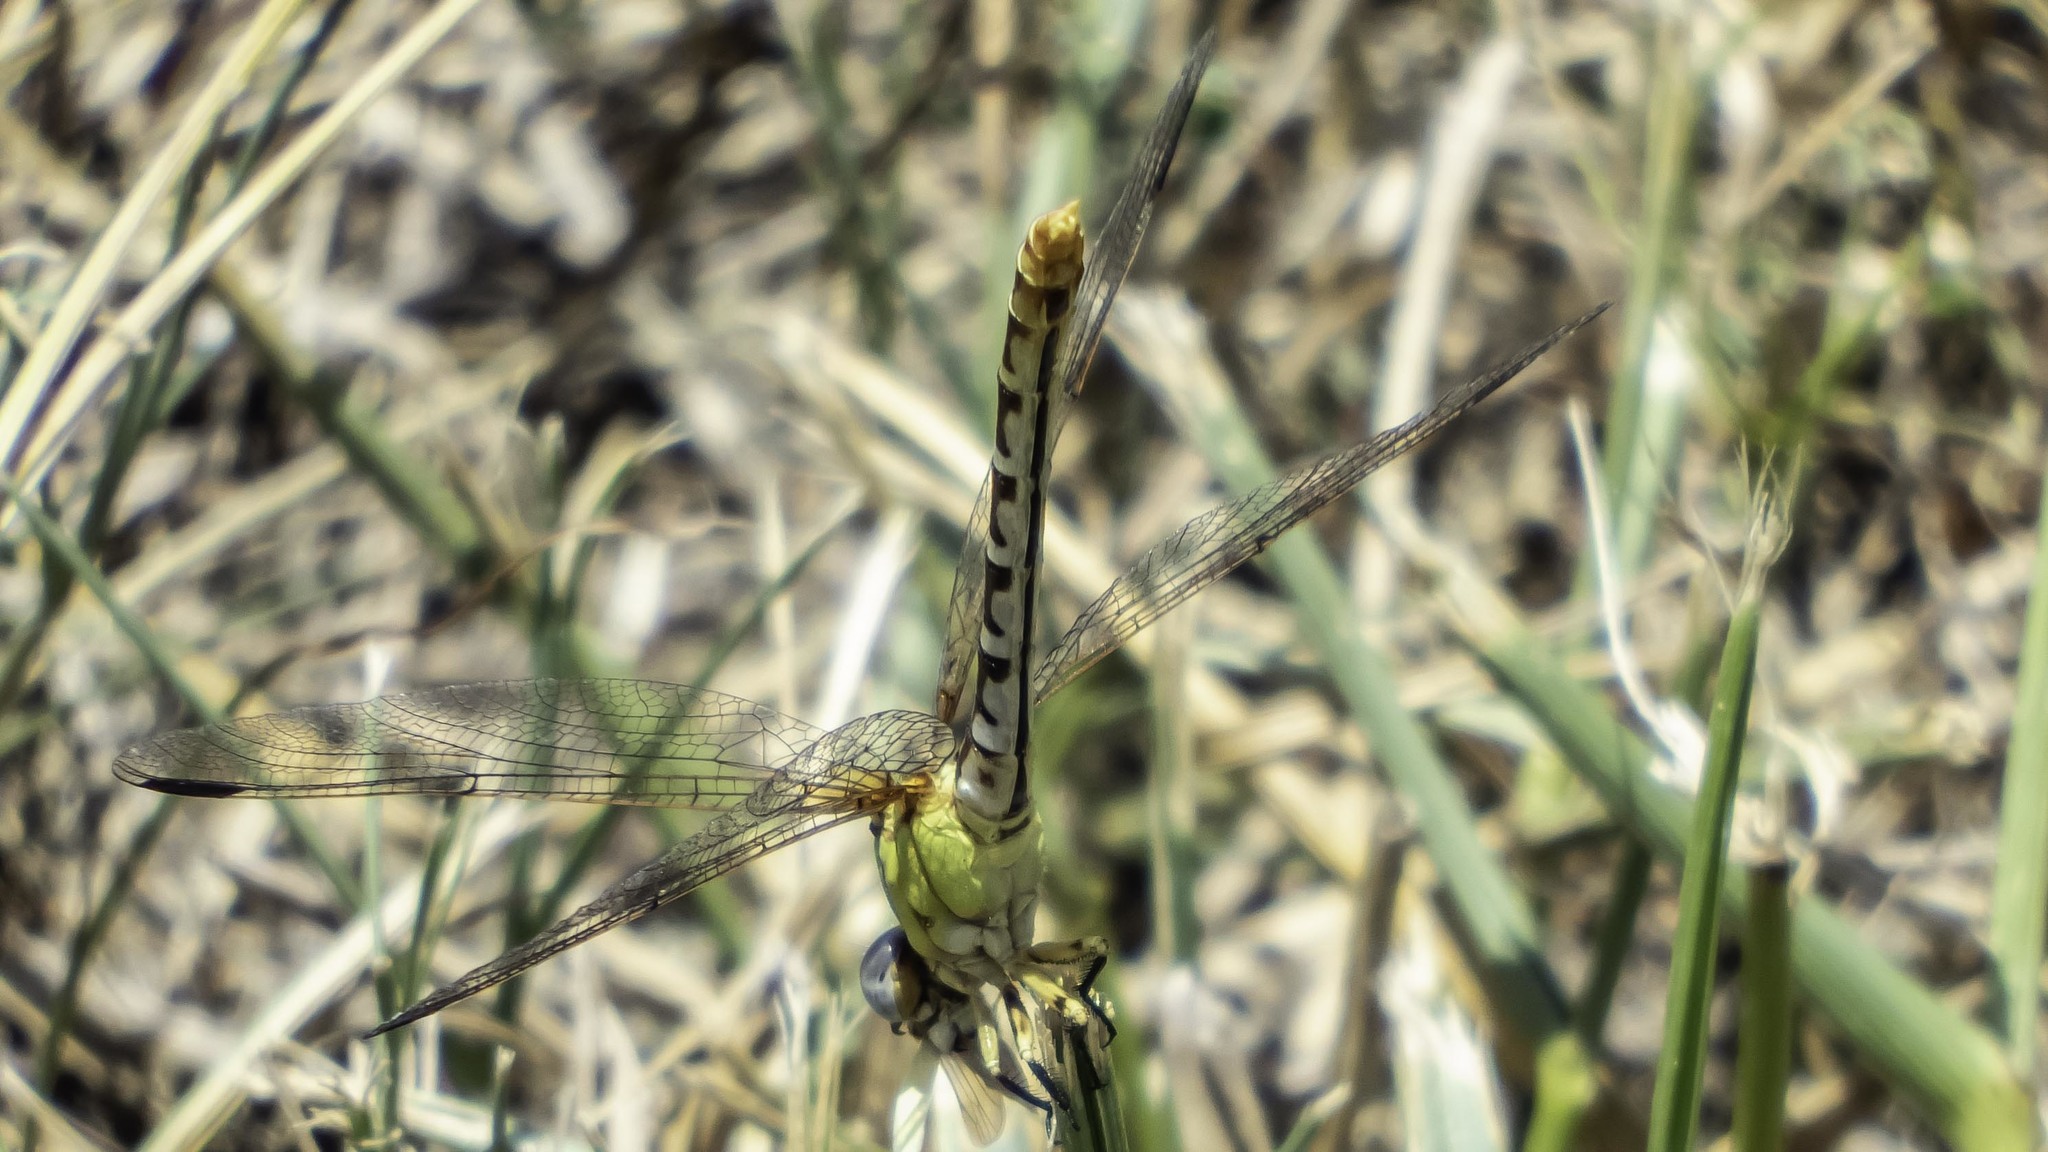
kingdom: Animalia
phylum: Arthropoda
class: Insecta
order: Odonata
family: Gomphidae
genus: Erpetogomphus
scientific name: Erpetogomphus designatus
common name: Eastern ringtail
